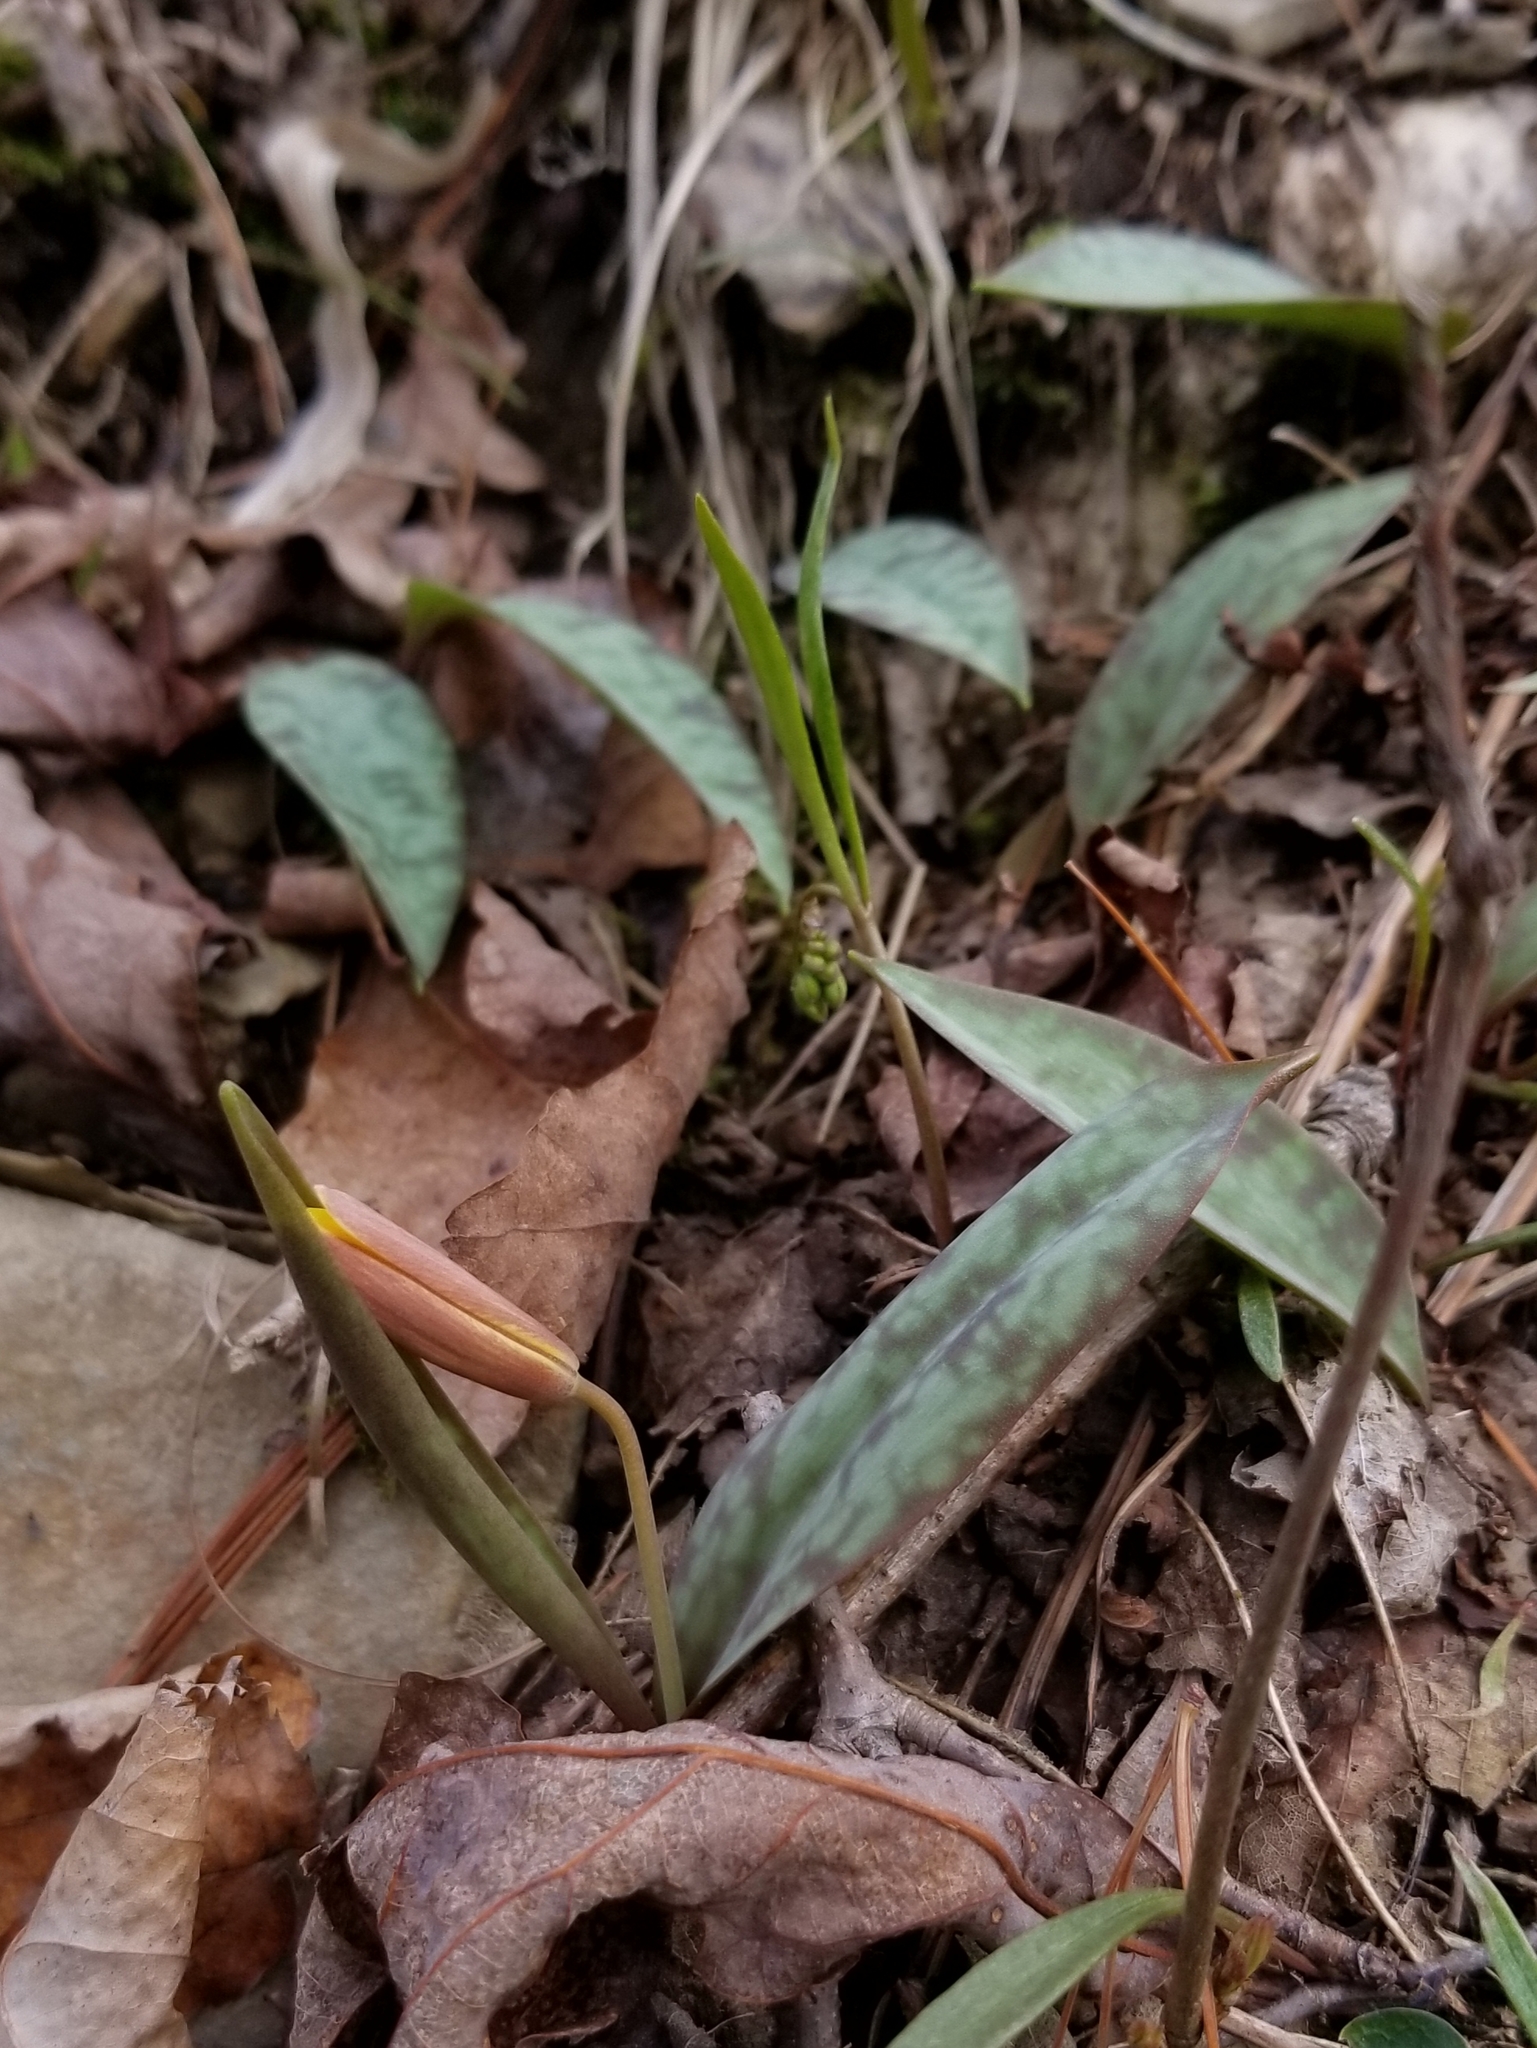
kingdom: Plantae
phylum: Tracheophyta
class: Liliopsida
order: Liliales
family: Liliaceae
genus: Erythronium
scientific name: Erythronium americanum
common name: Yellow adder's-tongue
